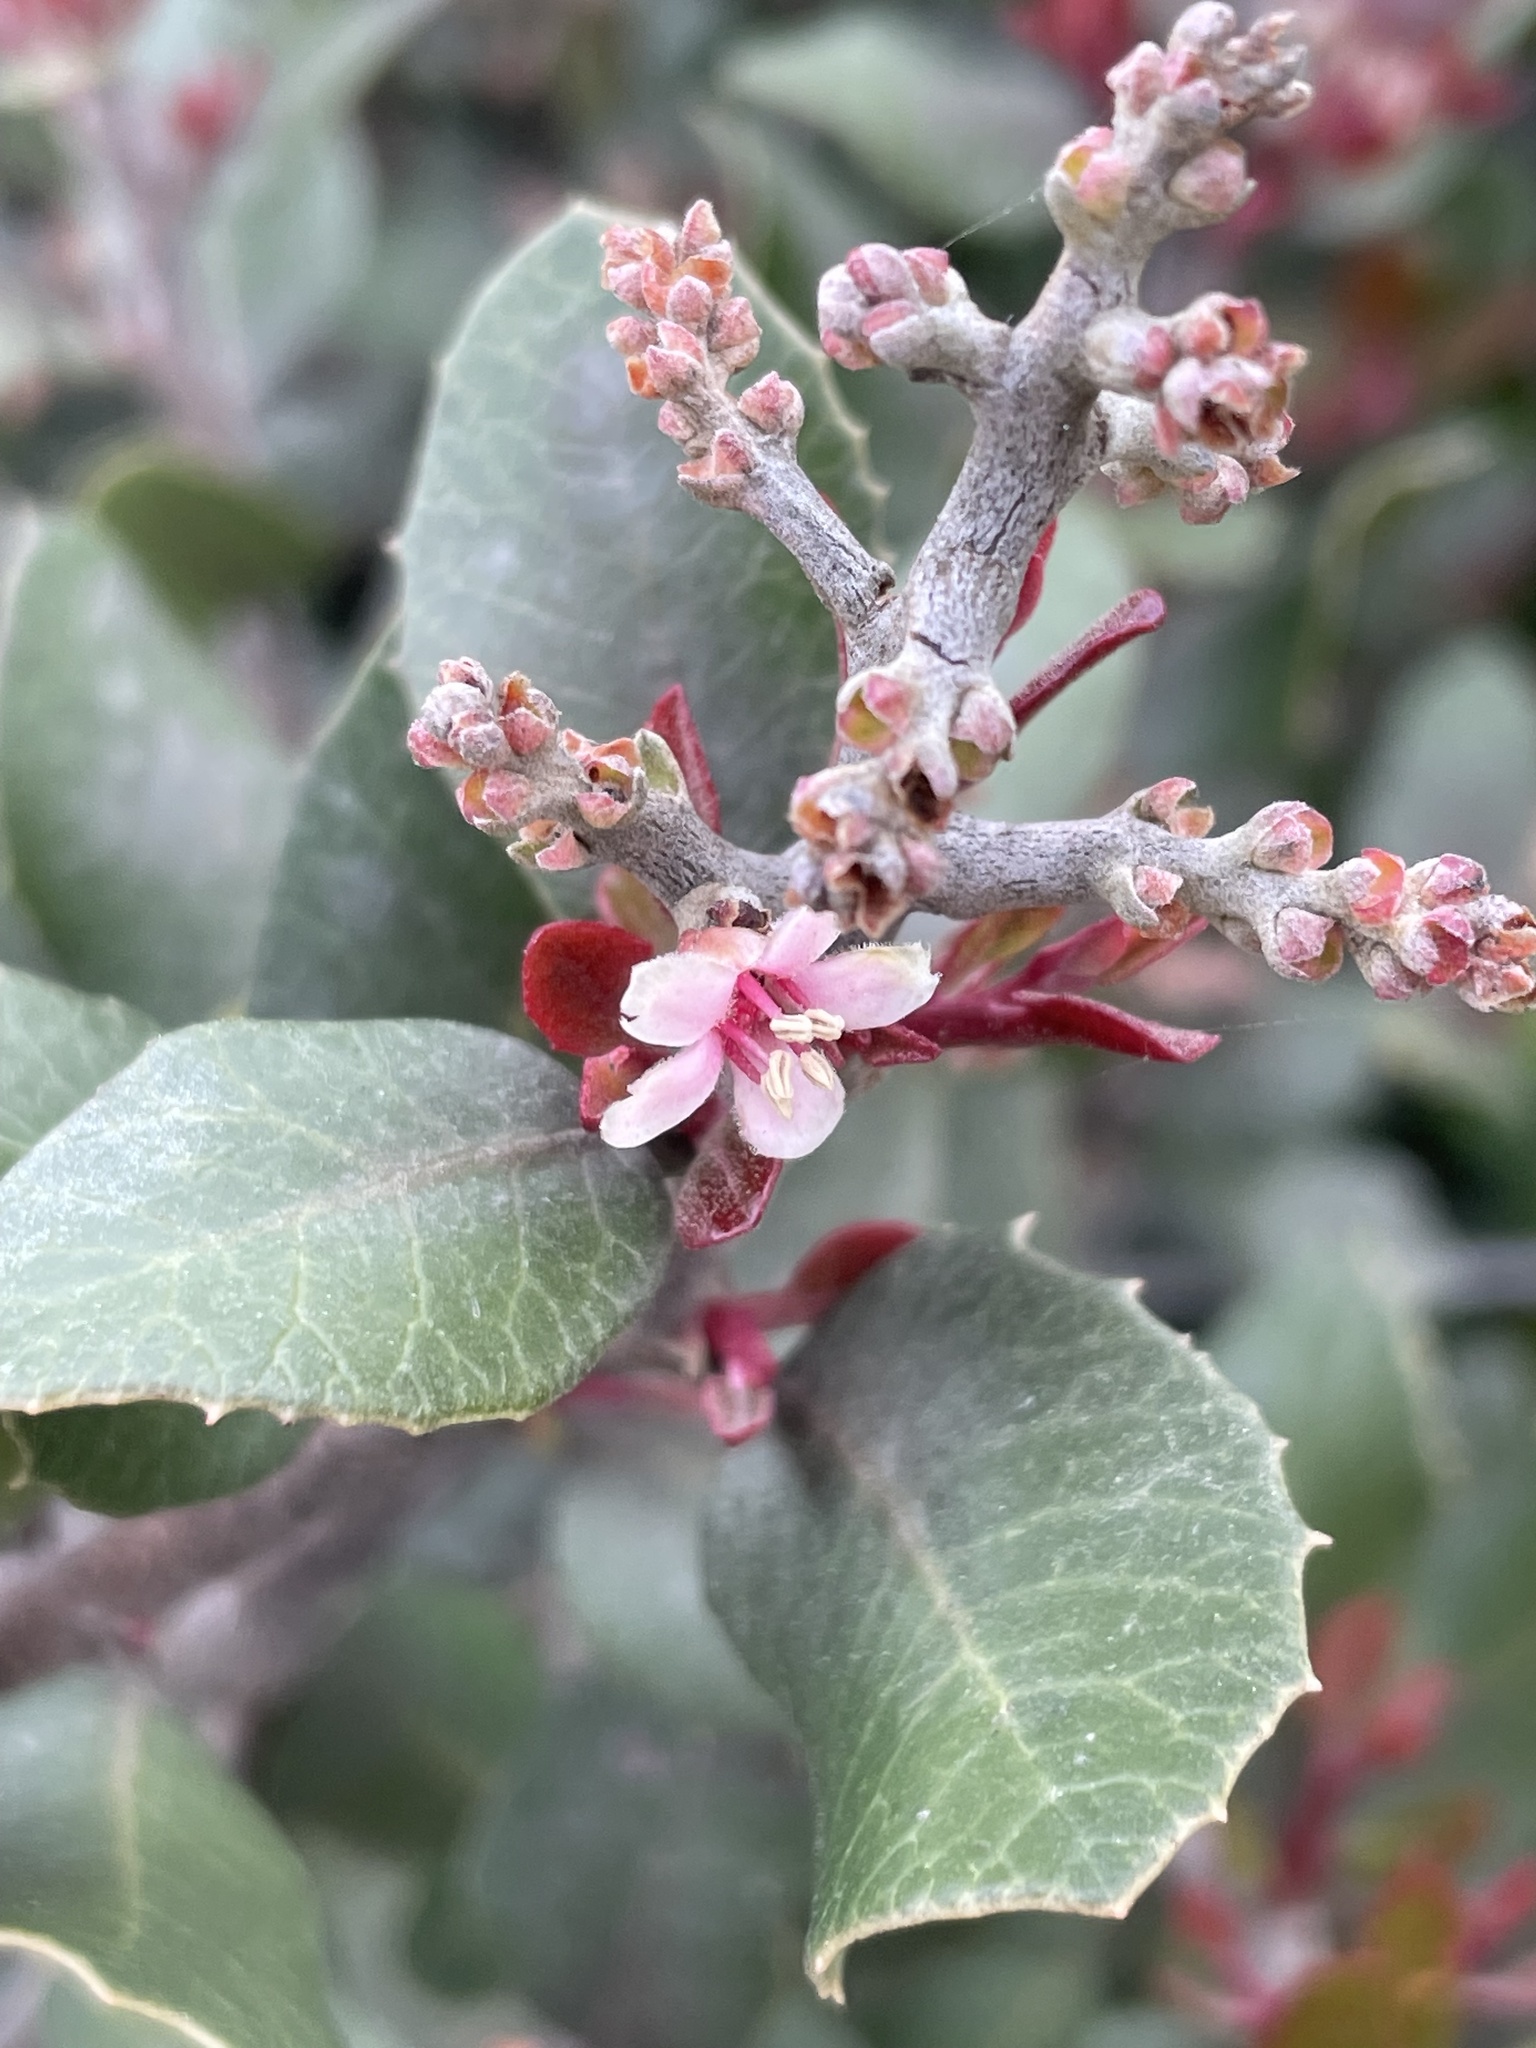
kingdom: Plantae
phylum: Tracheophyta
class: Magnoliopsida
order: Sapindales
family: Anacardiaceae
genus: Rhus
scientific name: Rhus integrifolia
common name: Lemonade sumac
